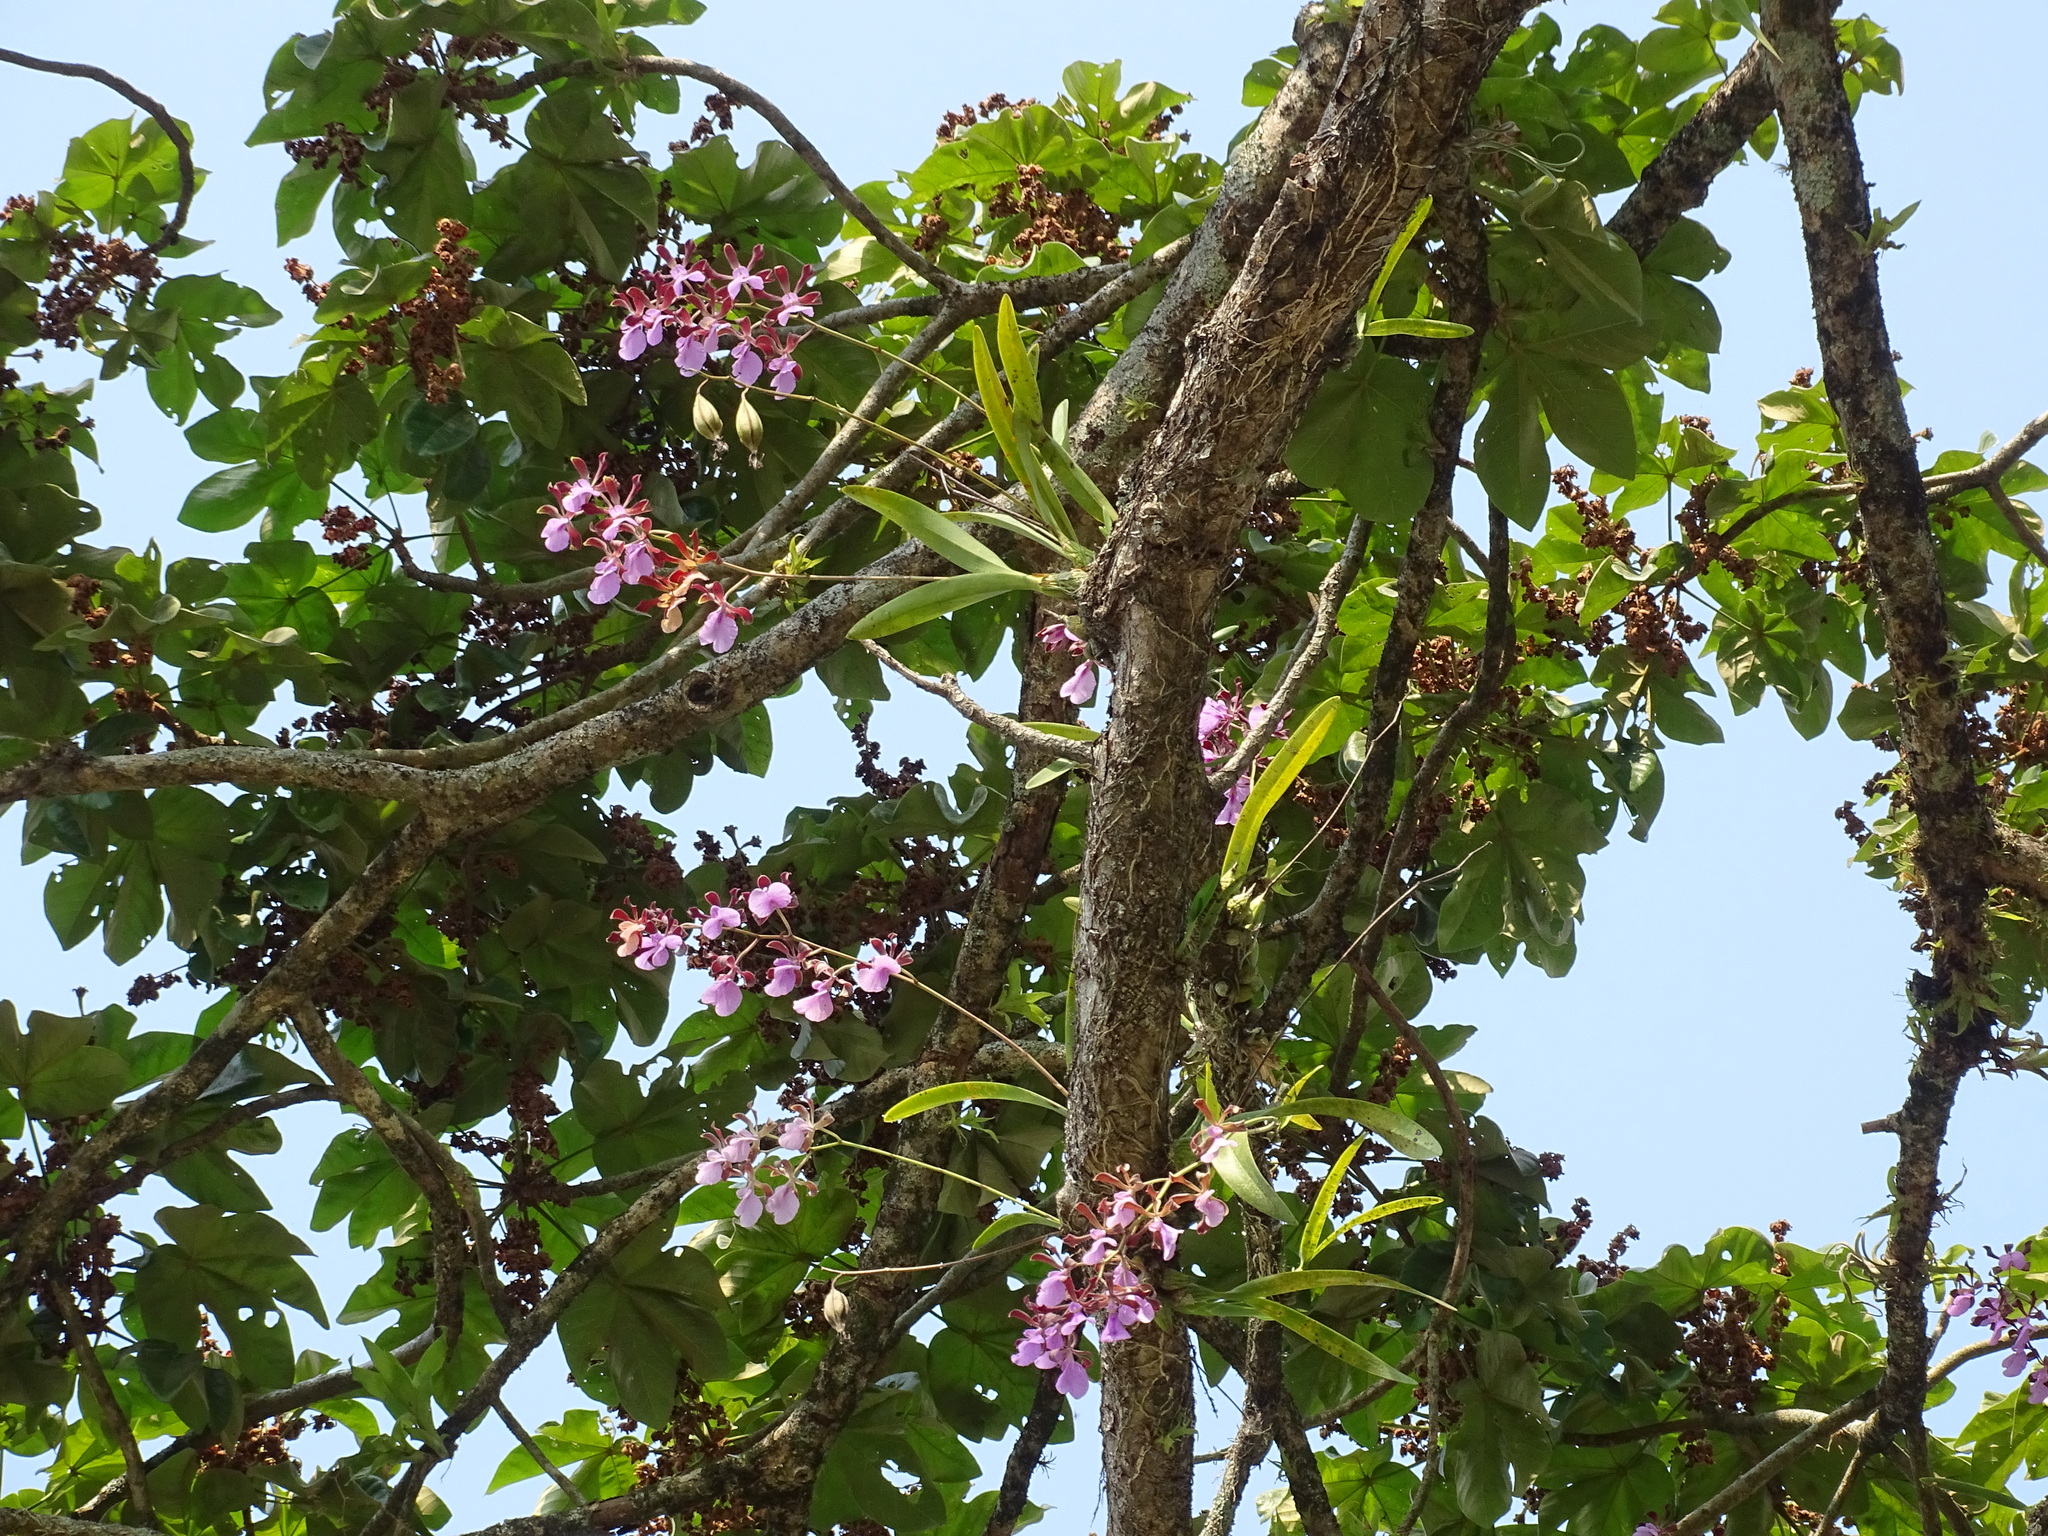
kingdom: Plantae
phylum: Tracheophyta
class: Liliopsida
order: Asparagales
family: Orchidaceae
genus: Encyclia
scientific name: Encyclia cordigera
